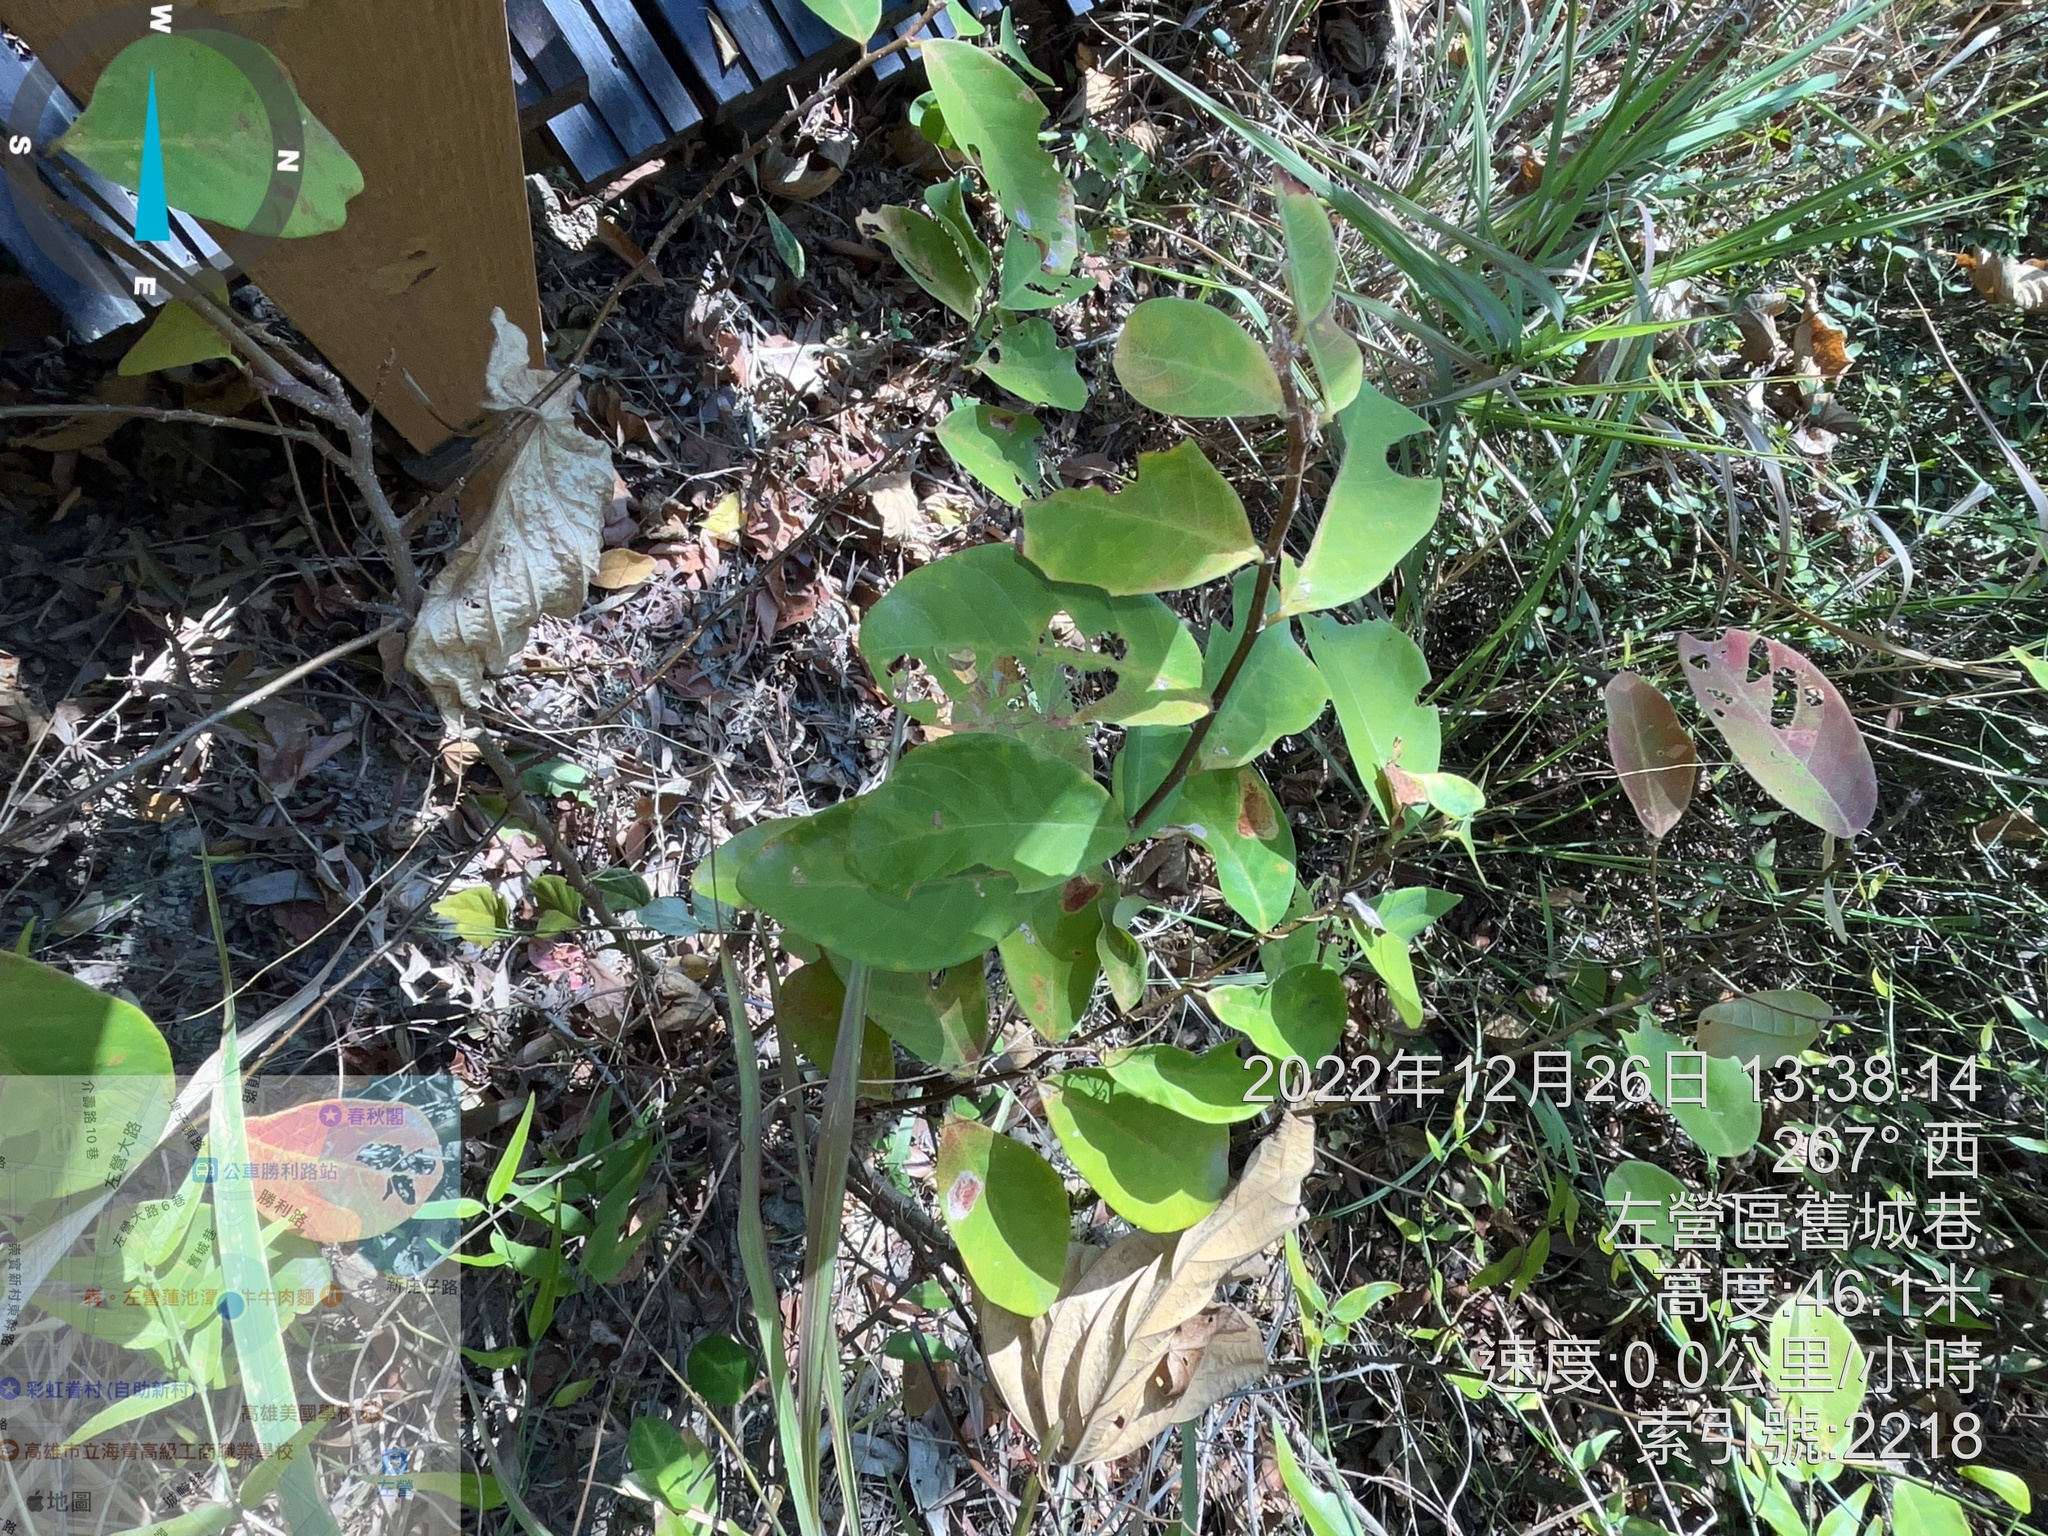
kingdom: Plantae
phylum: Tracheophyta
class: Magnoliopsida
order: Malpighiales
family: Phyllanthaceae
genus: Bridelia
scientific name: Bridelia tomentosa
